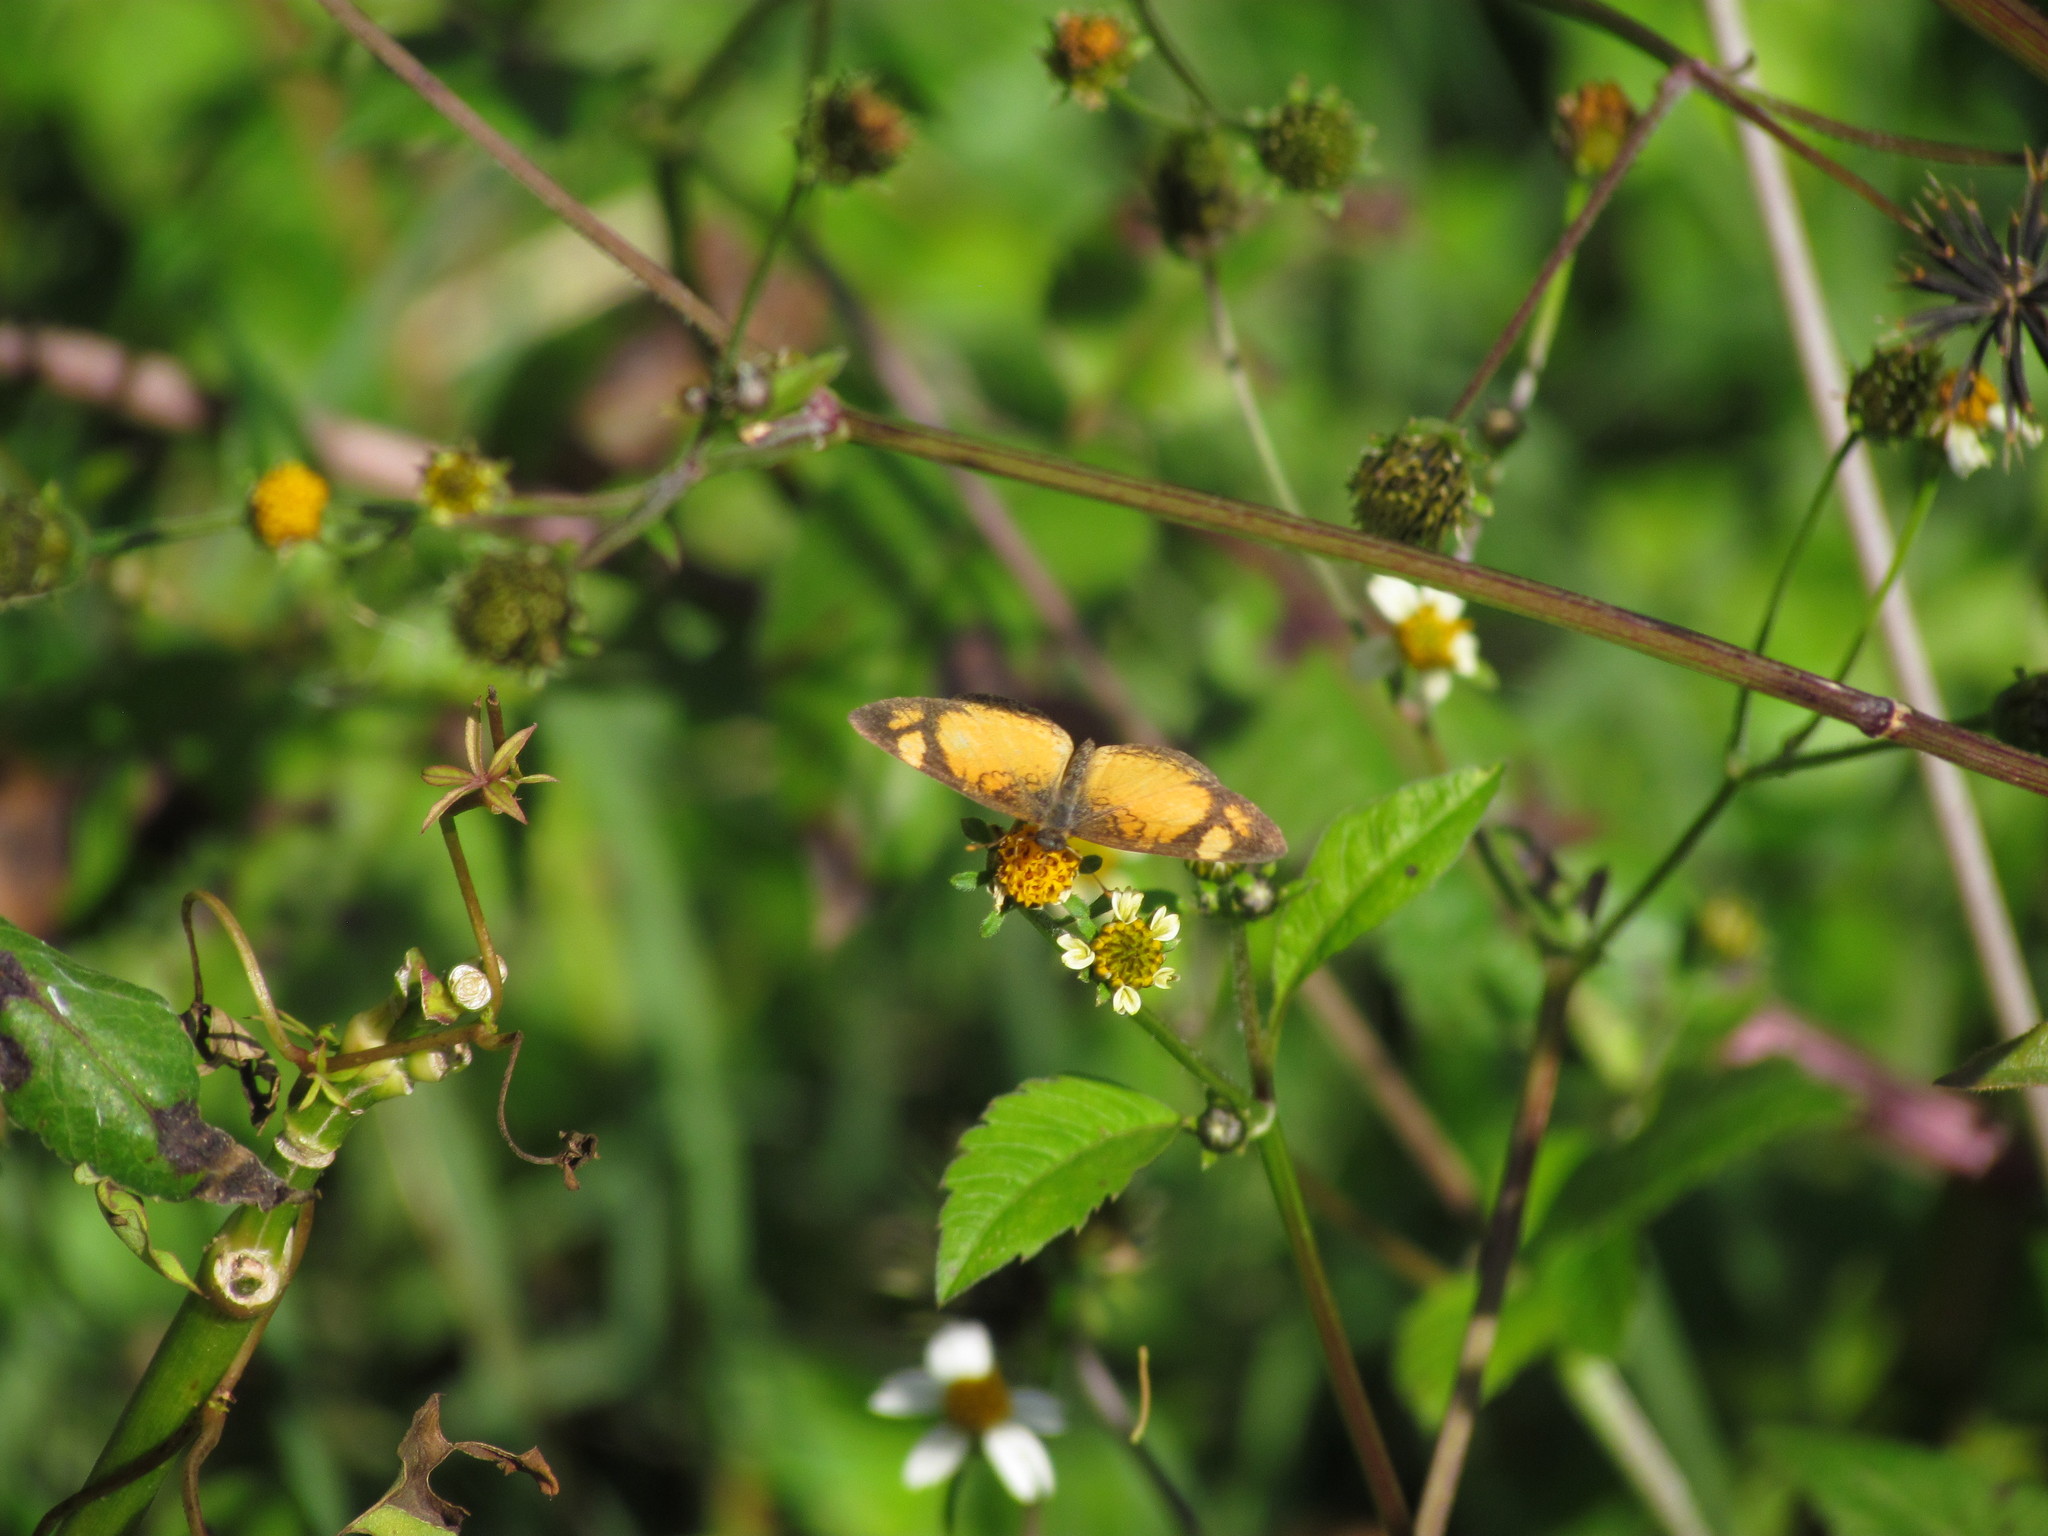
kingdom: Animalia
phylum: Arthropoda
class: Insecta
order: Lepidoptera
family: Nymphalidae
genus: Tegosa
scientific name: Tegosa claudina
